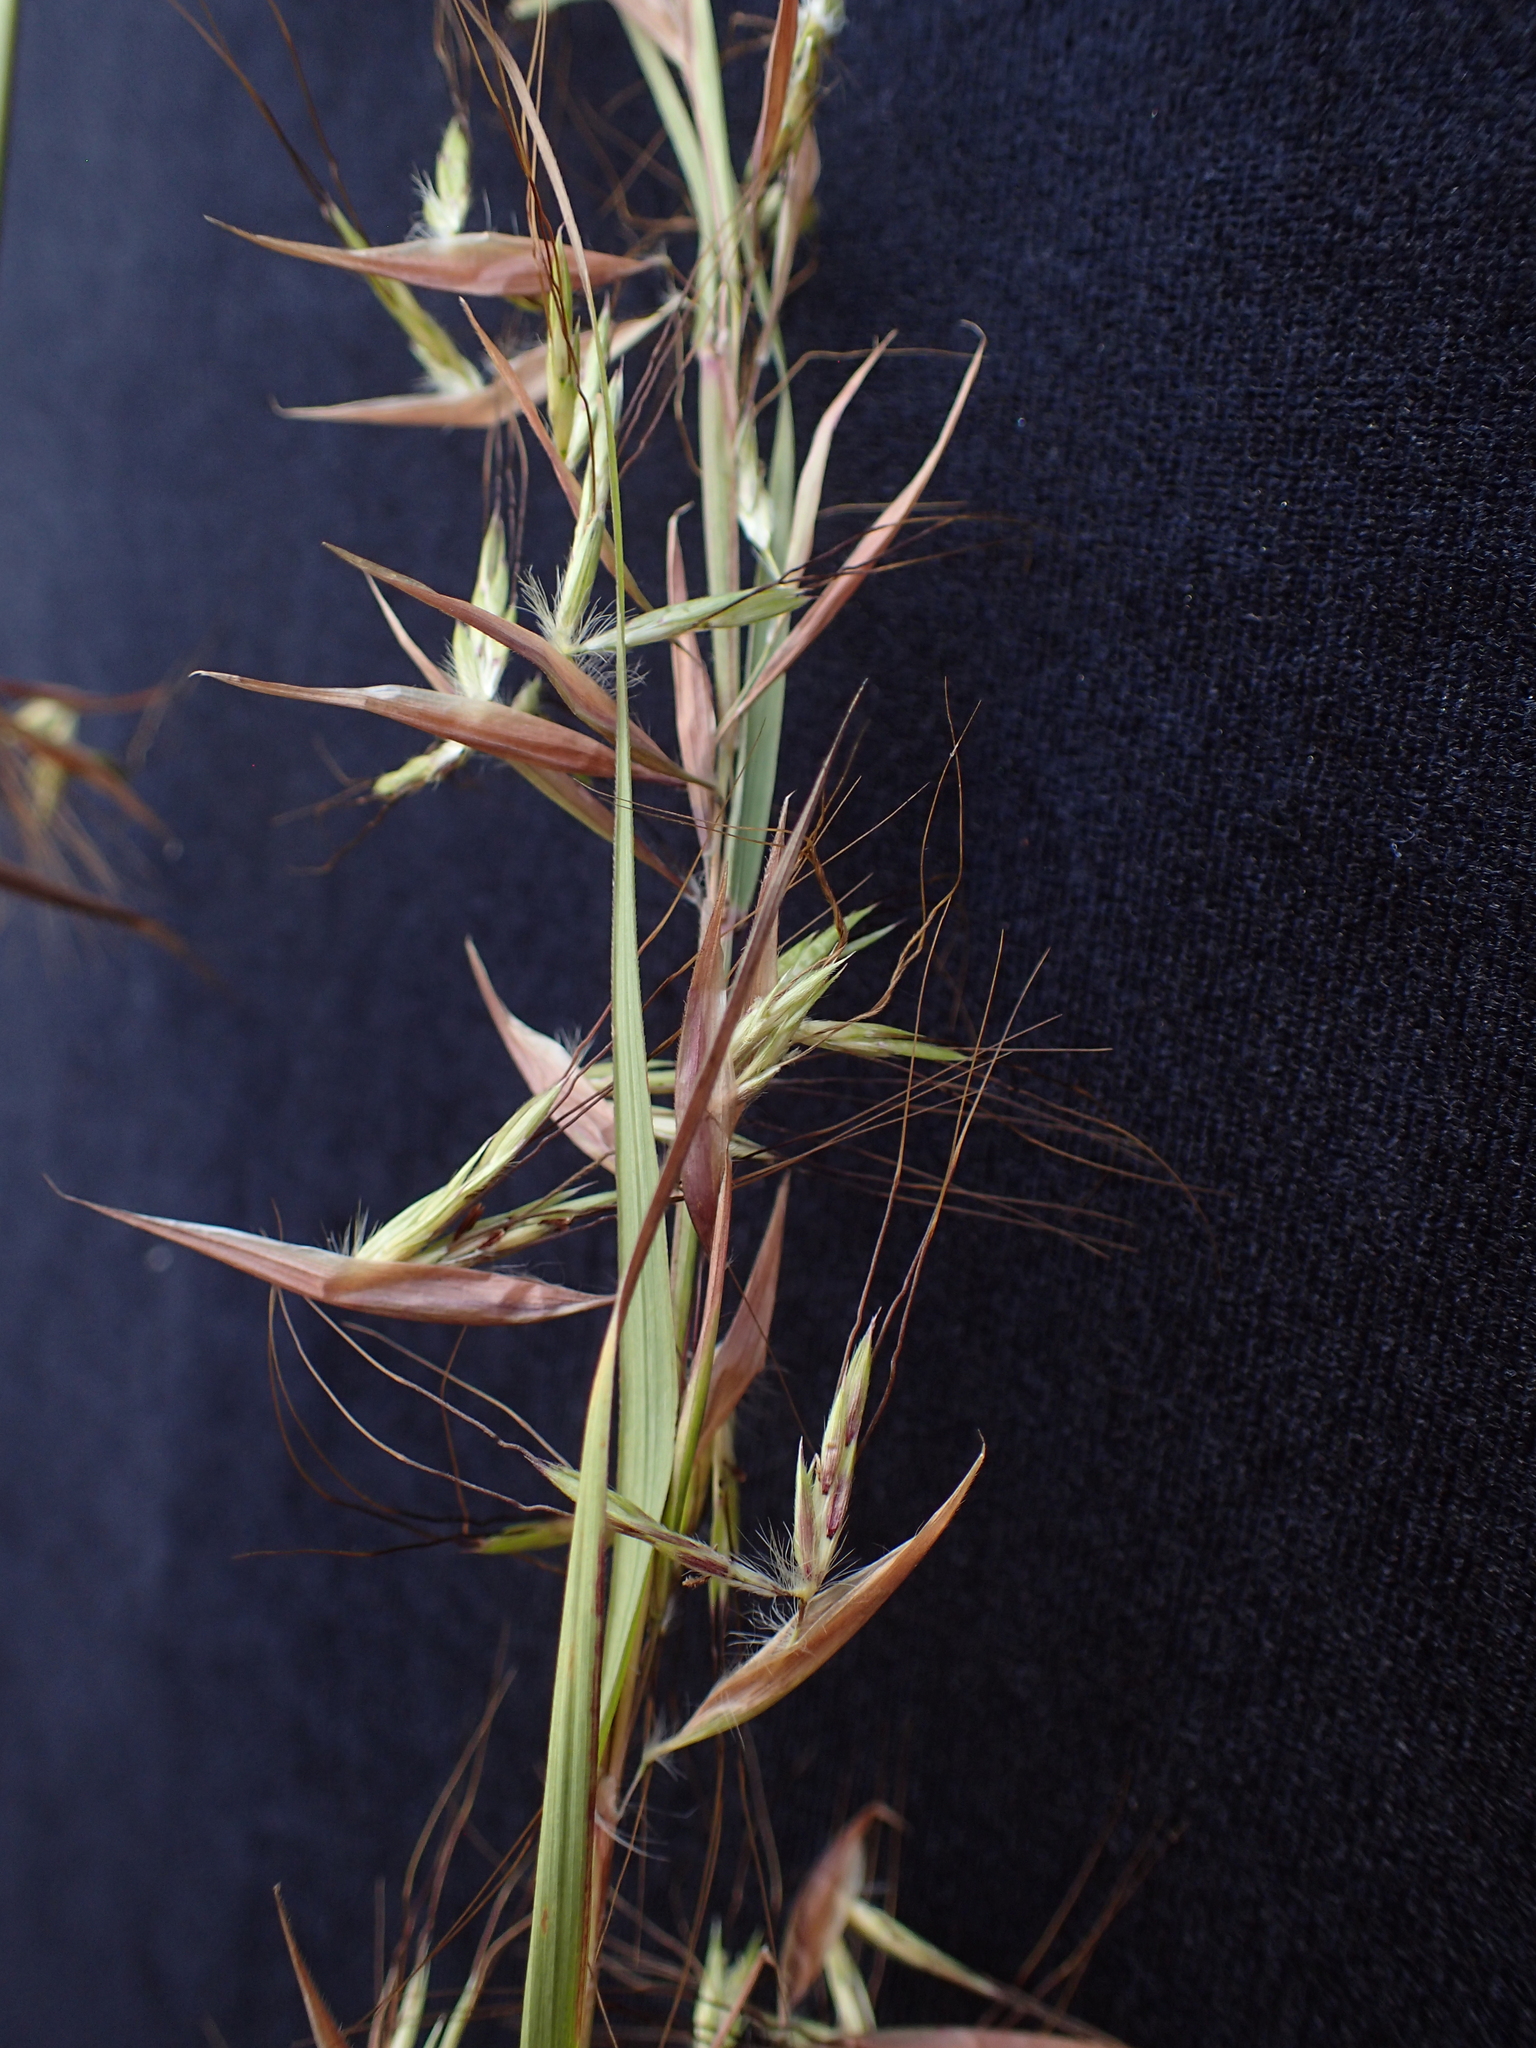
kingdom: Plantae
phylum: Tracheophyta
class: Liliopsida
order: Poales
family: Poaceae
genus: Hyparrhenia
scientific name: Hyparrhenia schimperi
